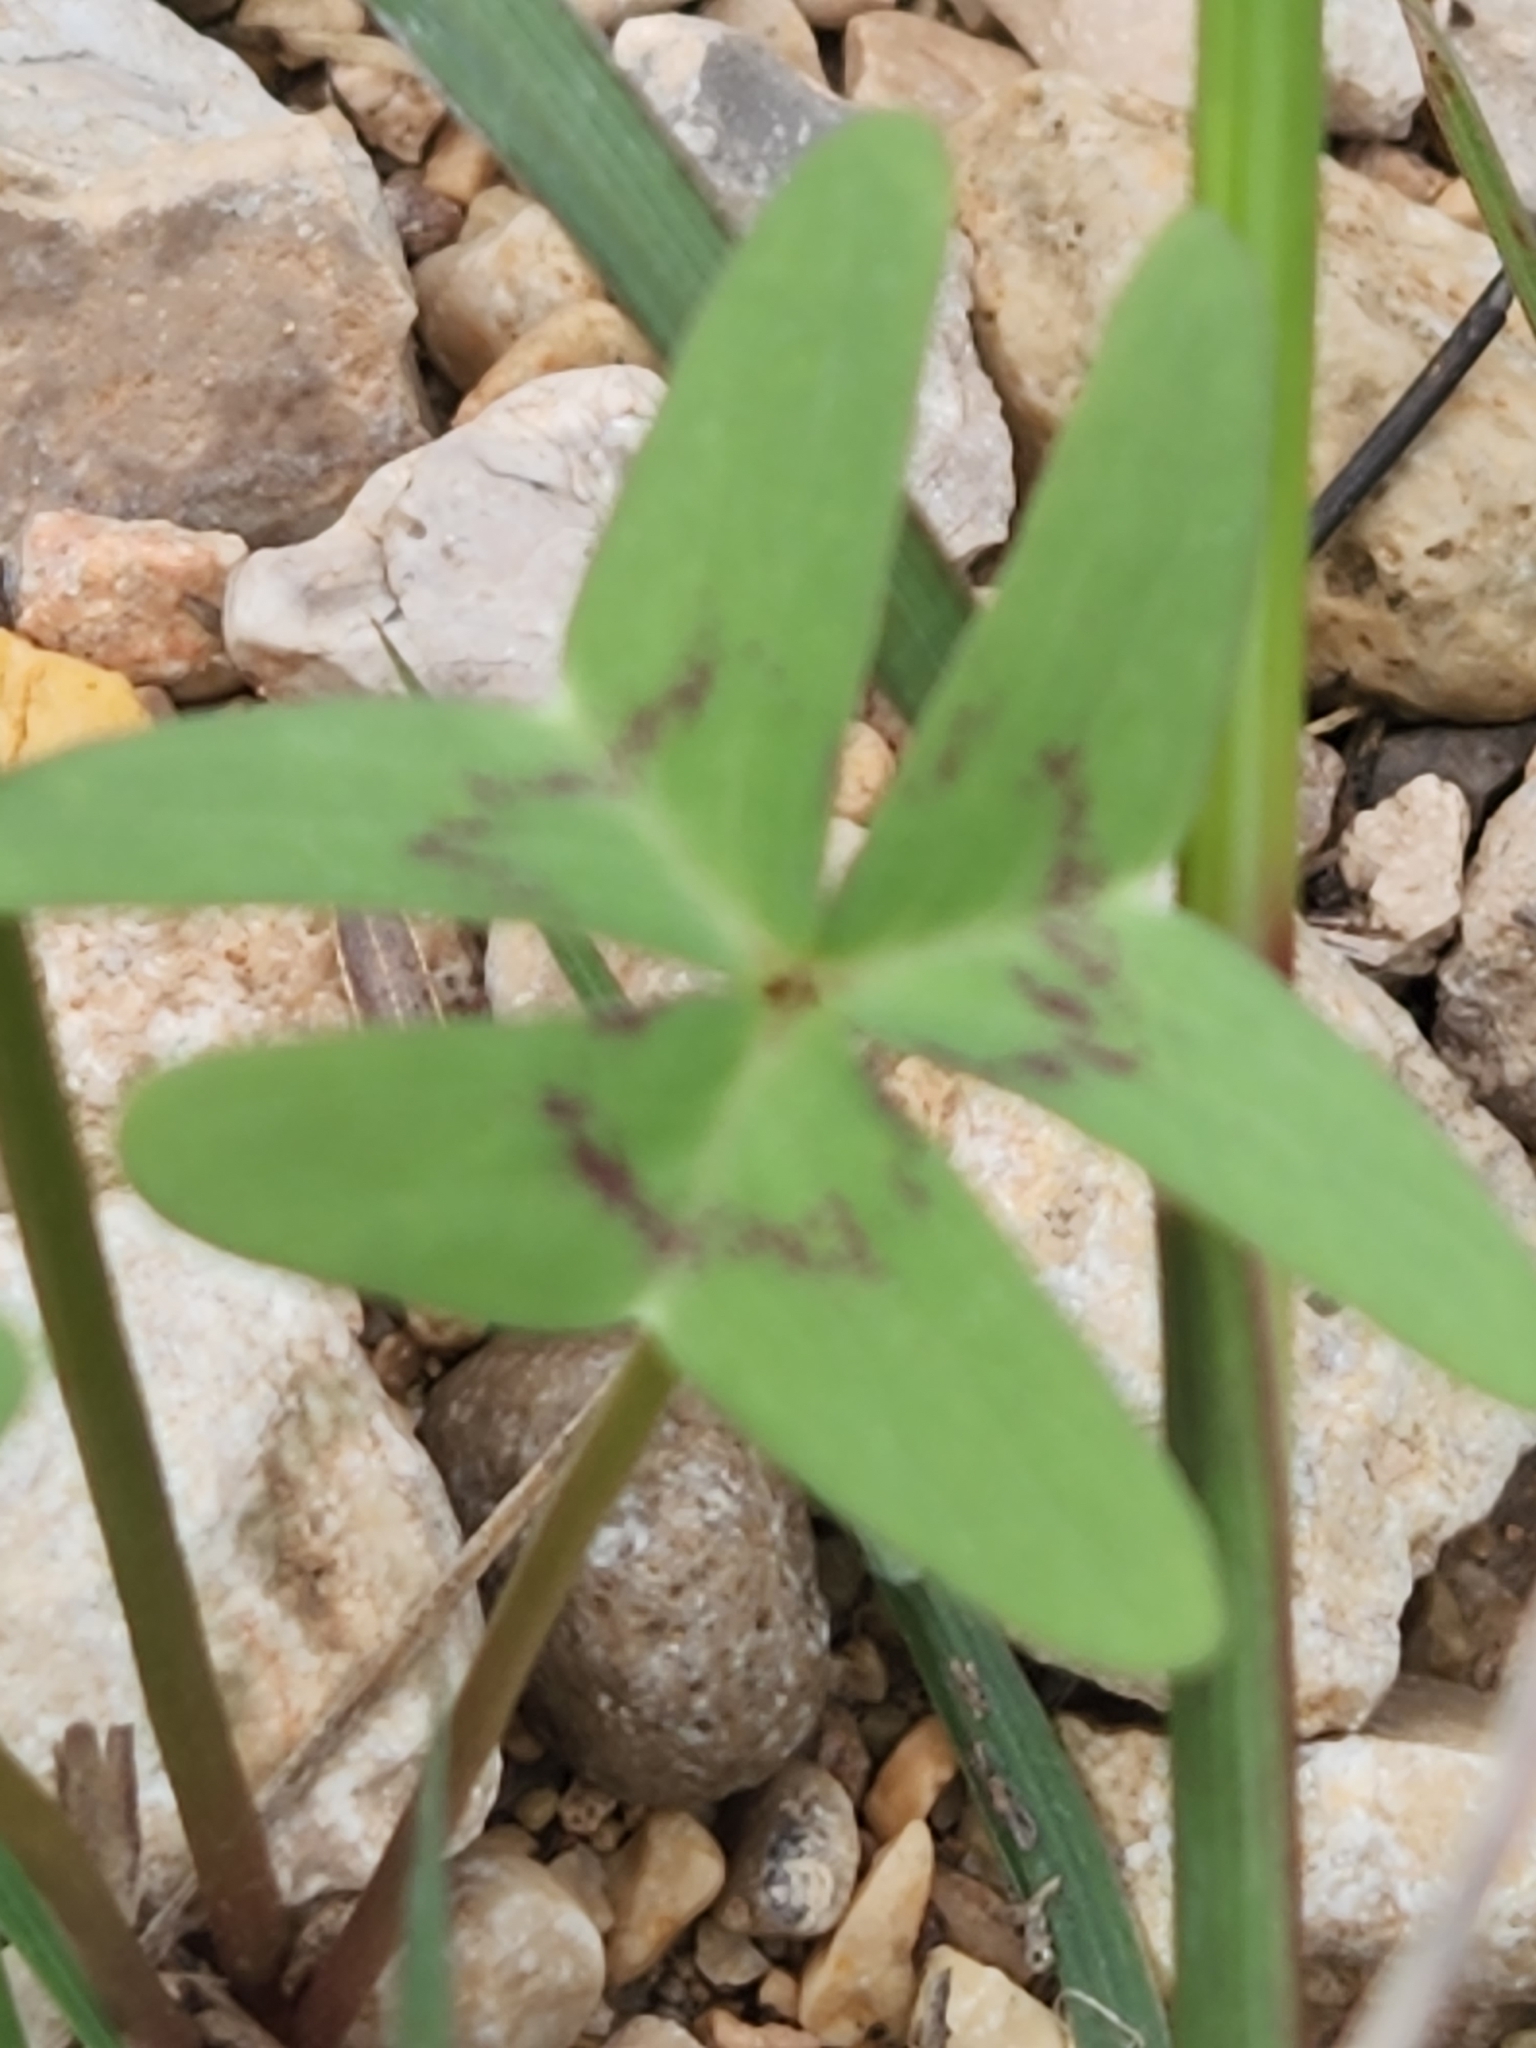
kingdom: Plantae
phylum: Tracheophyta
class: Magnoliopsida
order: Oxalidales
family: Oxalidaceae
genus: Oxalis
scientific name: Oxalis drummondii
